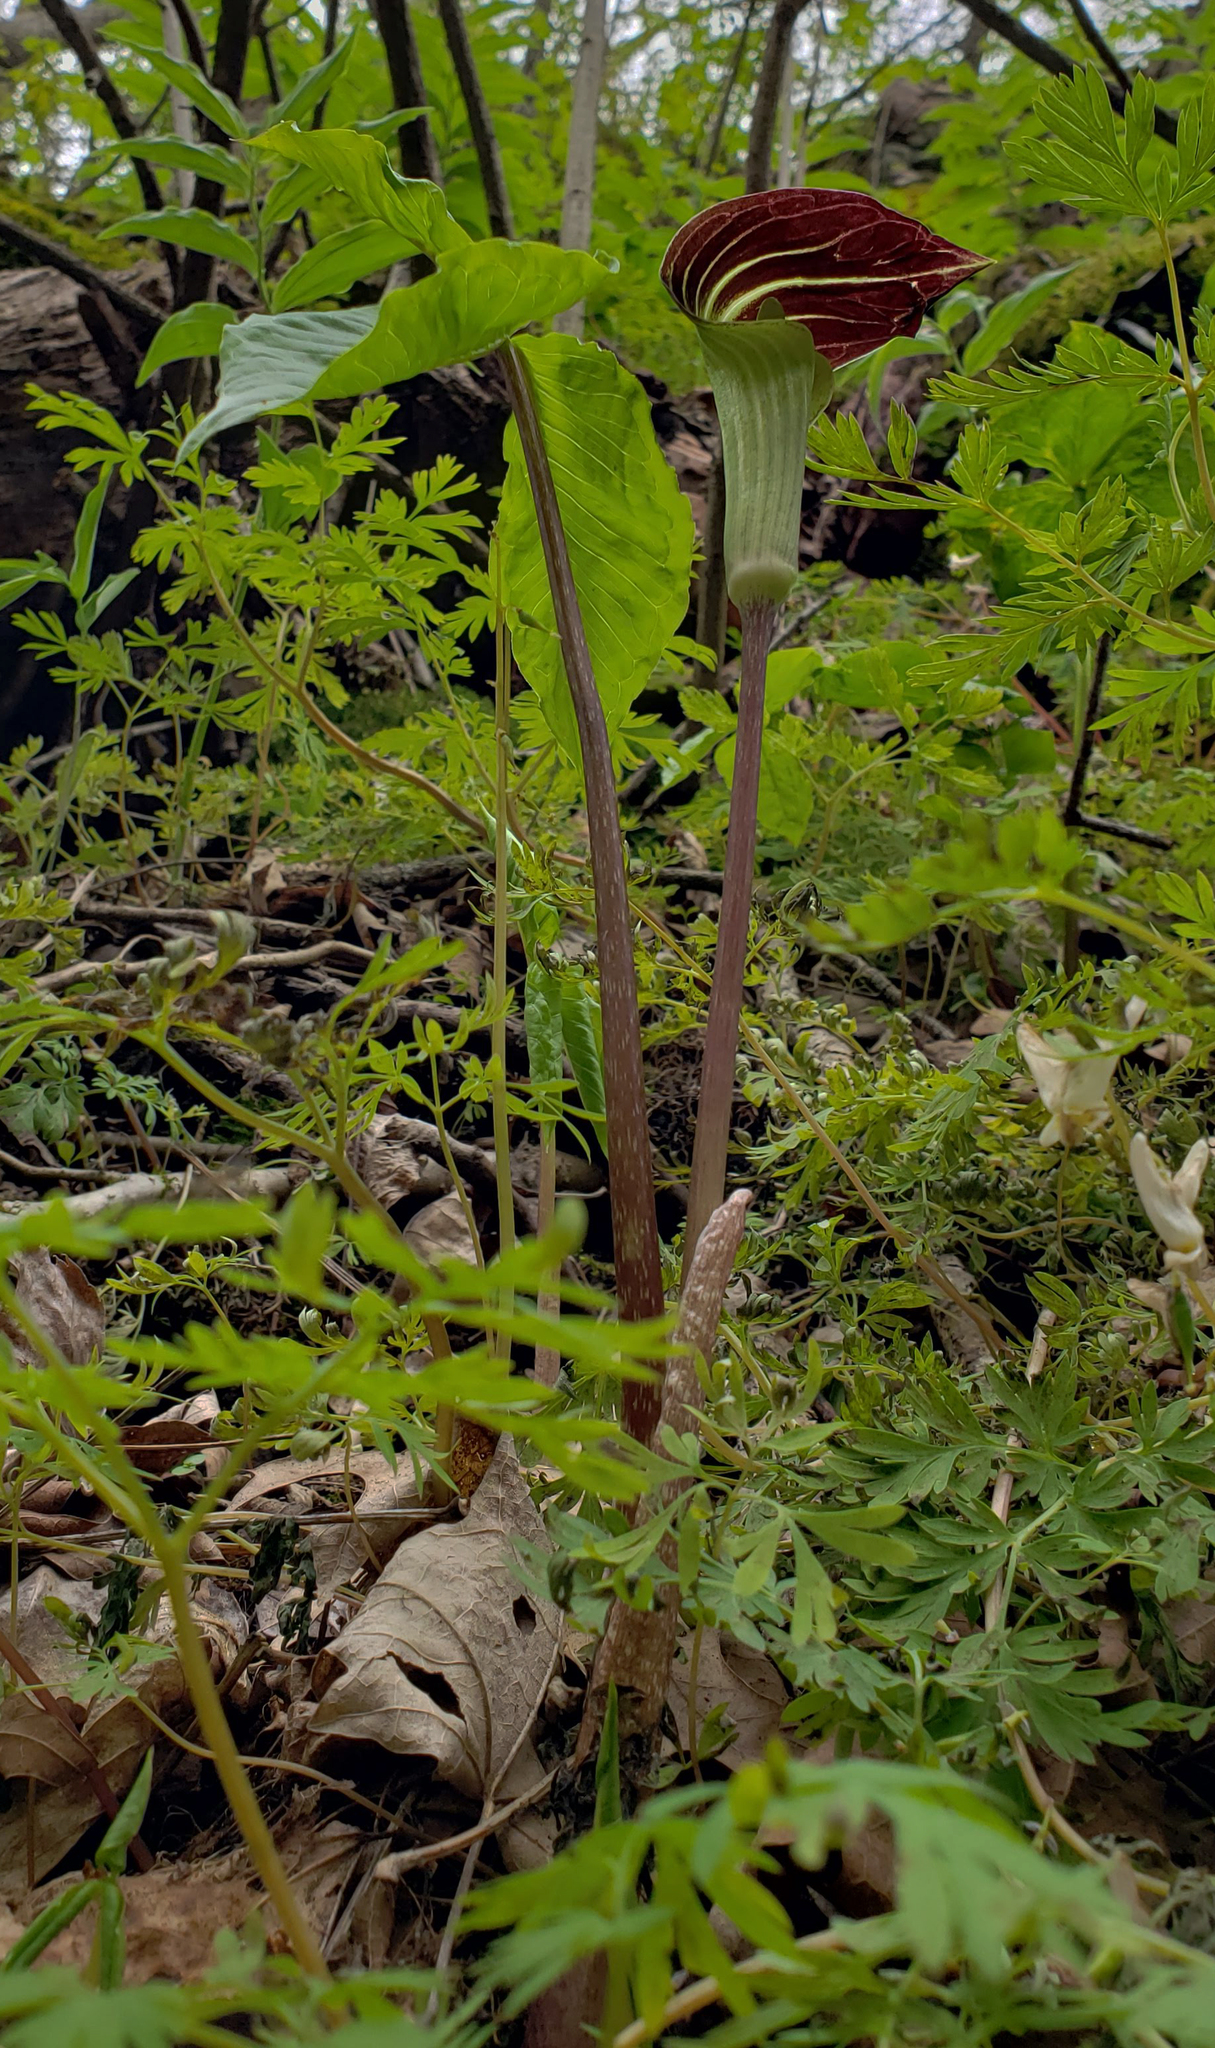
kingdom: Plantae
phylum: Tracheophyta
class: Liliopsida
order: Alismatales
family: Araceae
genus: Arisaema
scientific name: Arisaema triphyllum
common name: Jack-in-the-pulpit
